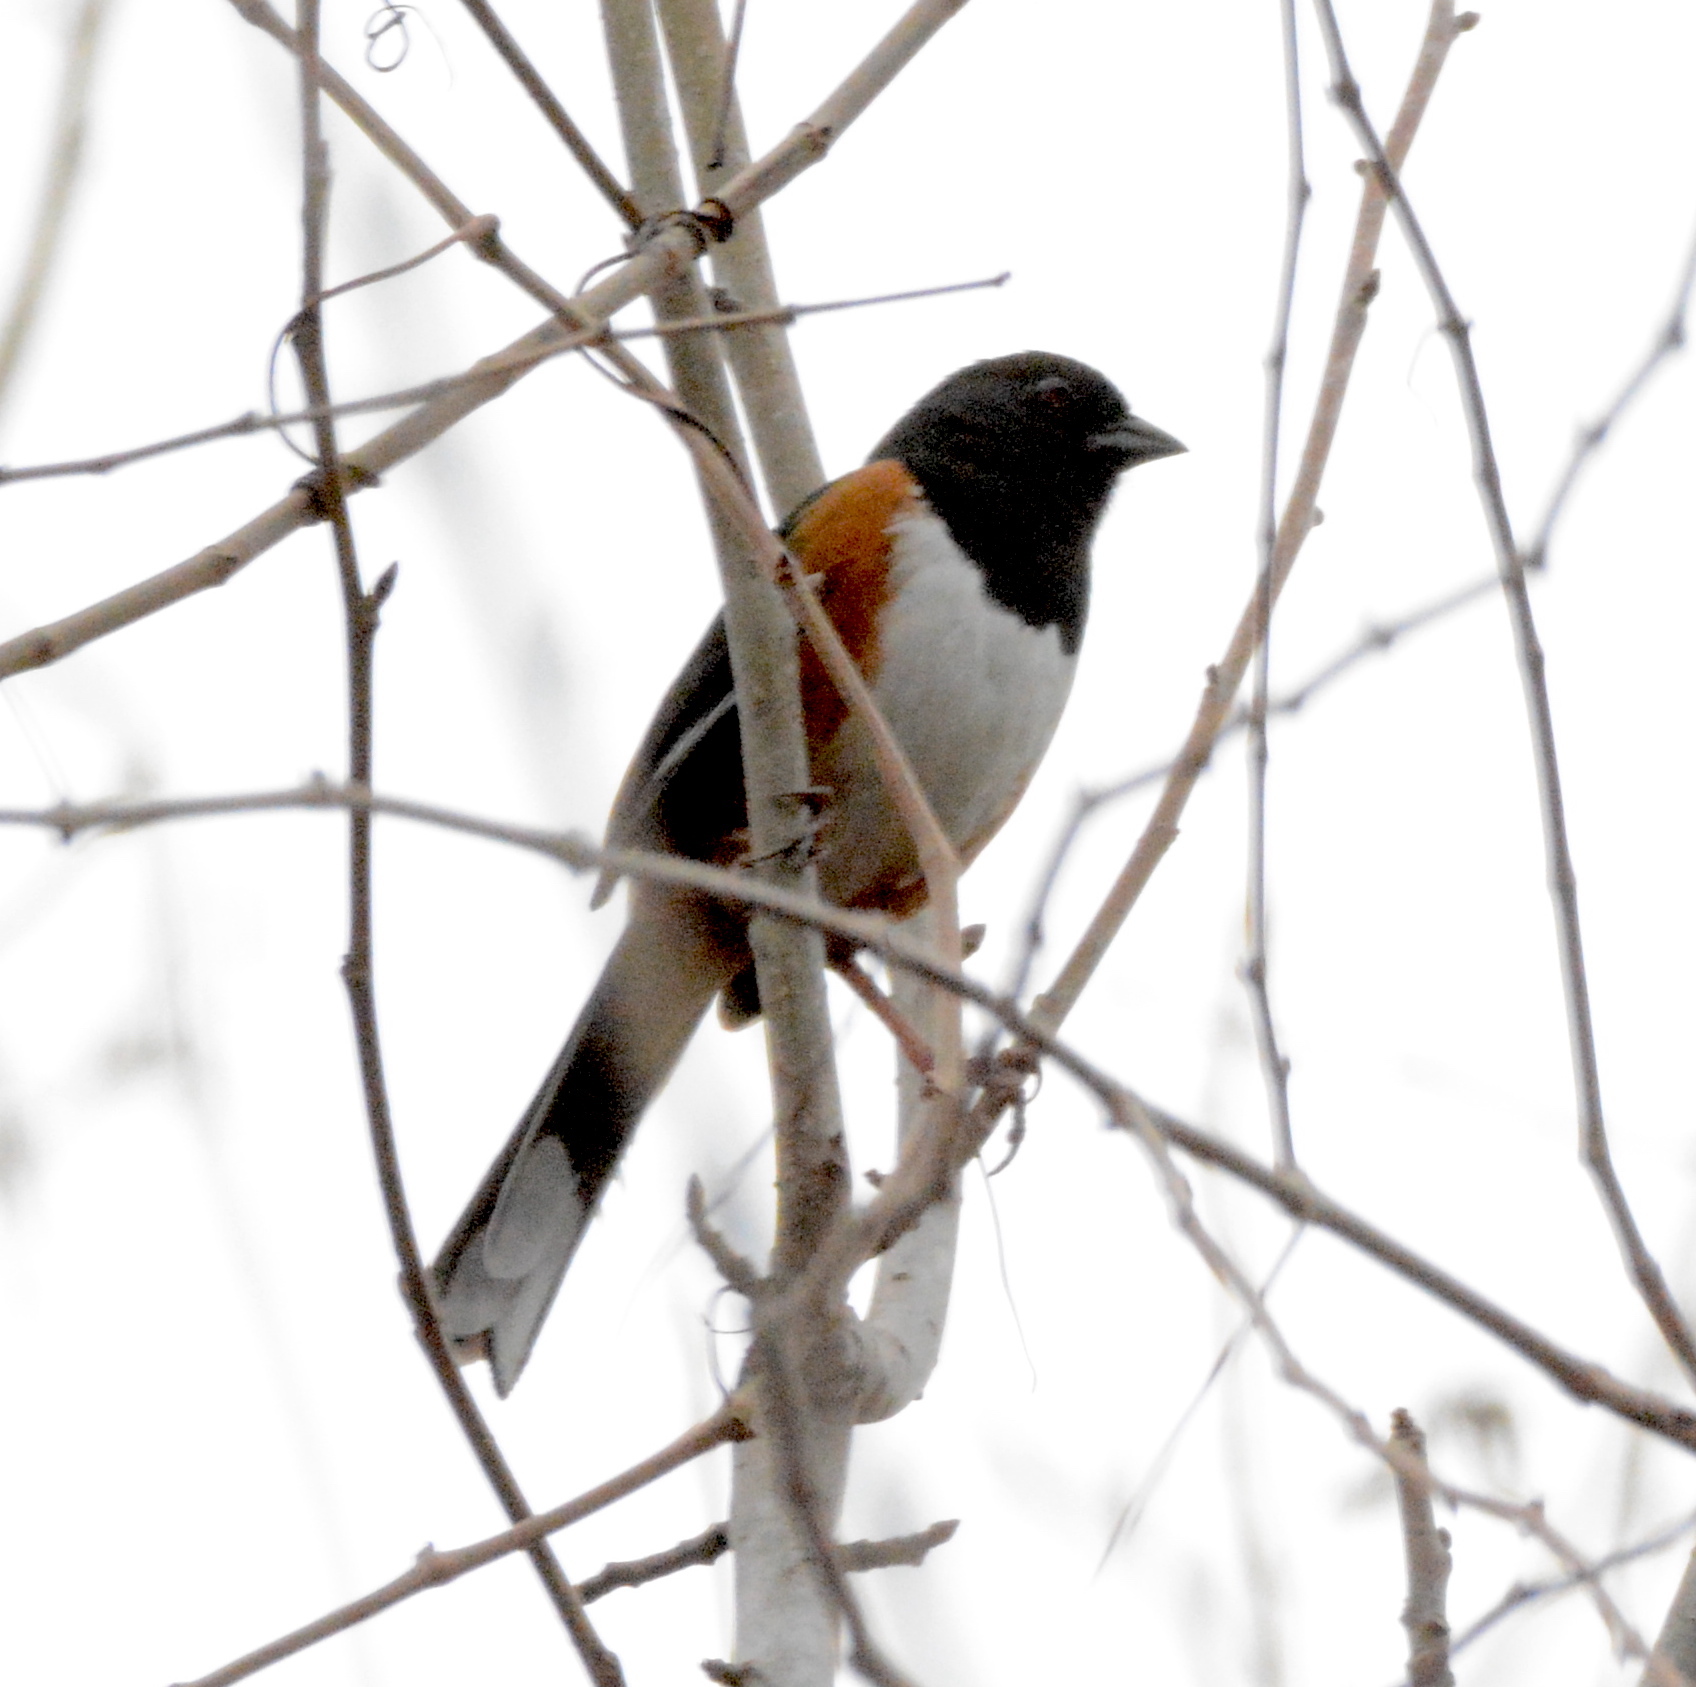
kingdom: Animalia
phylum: Chordata
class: Aves
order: Passeriformes
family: Passerellidae
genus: Pipilo
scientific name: Pipilo erythrophthalmus
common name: Eastern towhee
